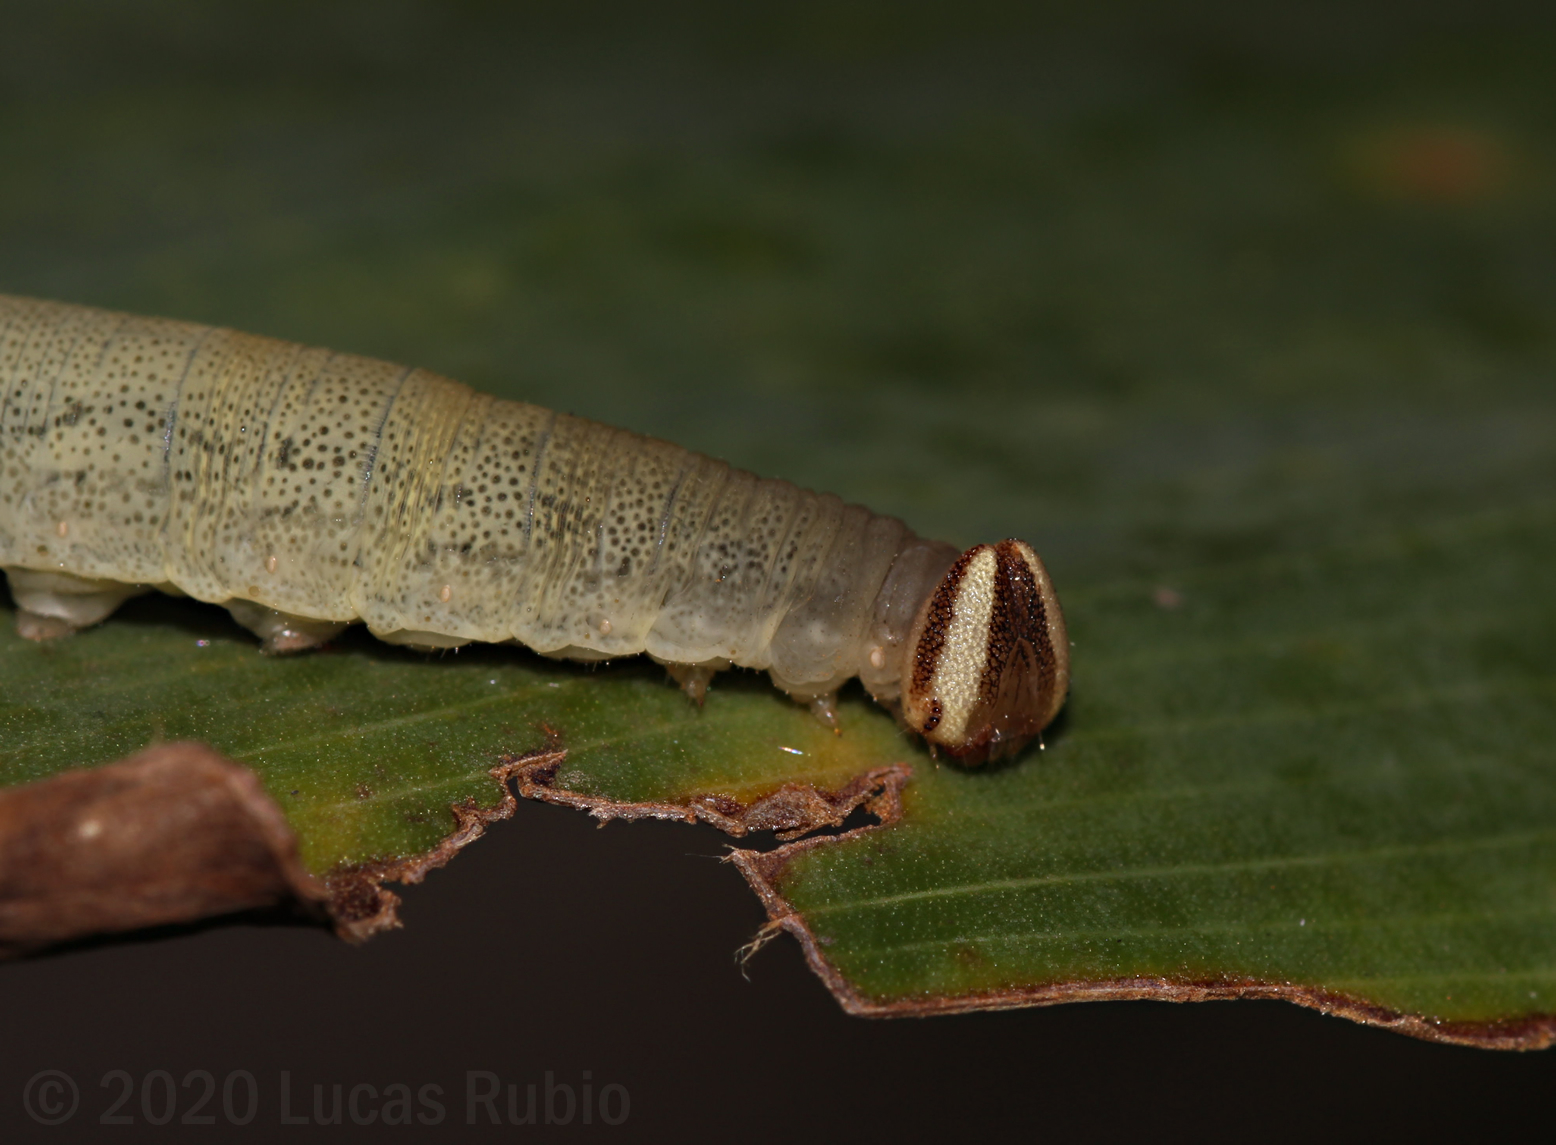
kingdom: Animalia
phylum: Arthropoda
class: Insecta
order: Lepidoptera
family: Hesperiidae
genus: Quinta
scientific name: Quinta cannae
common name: Canna skipper
